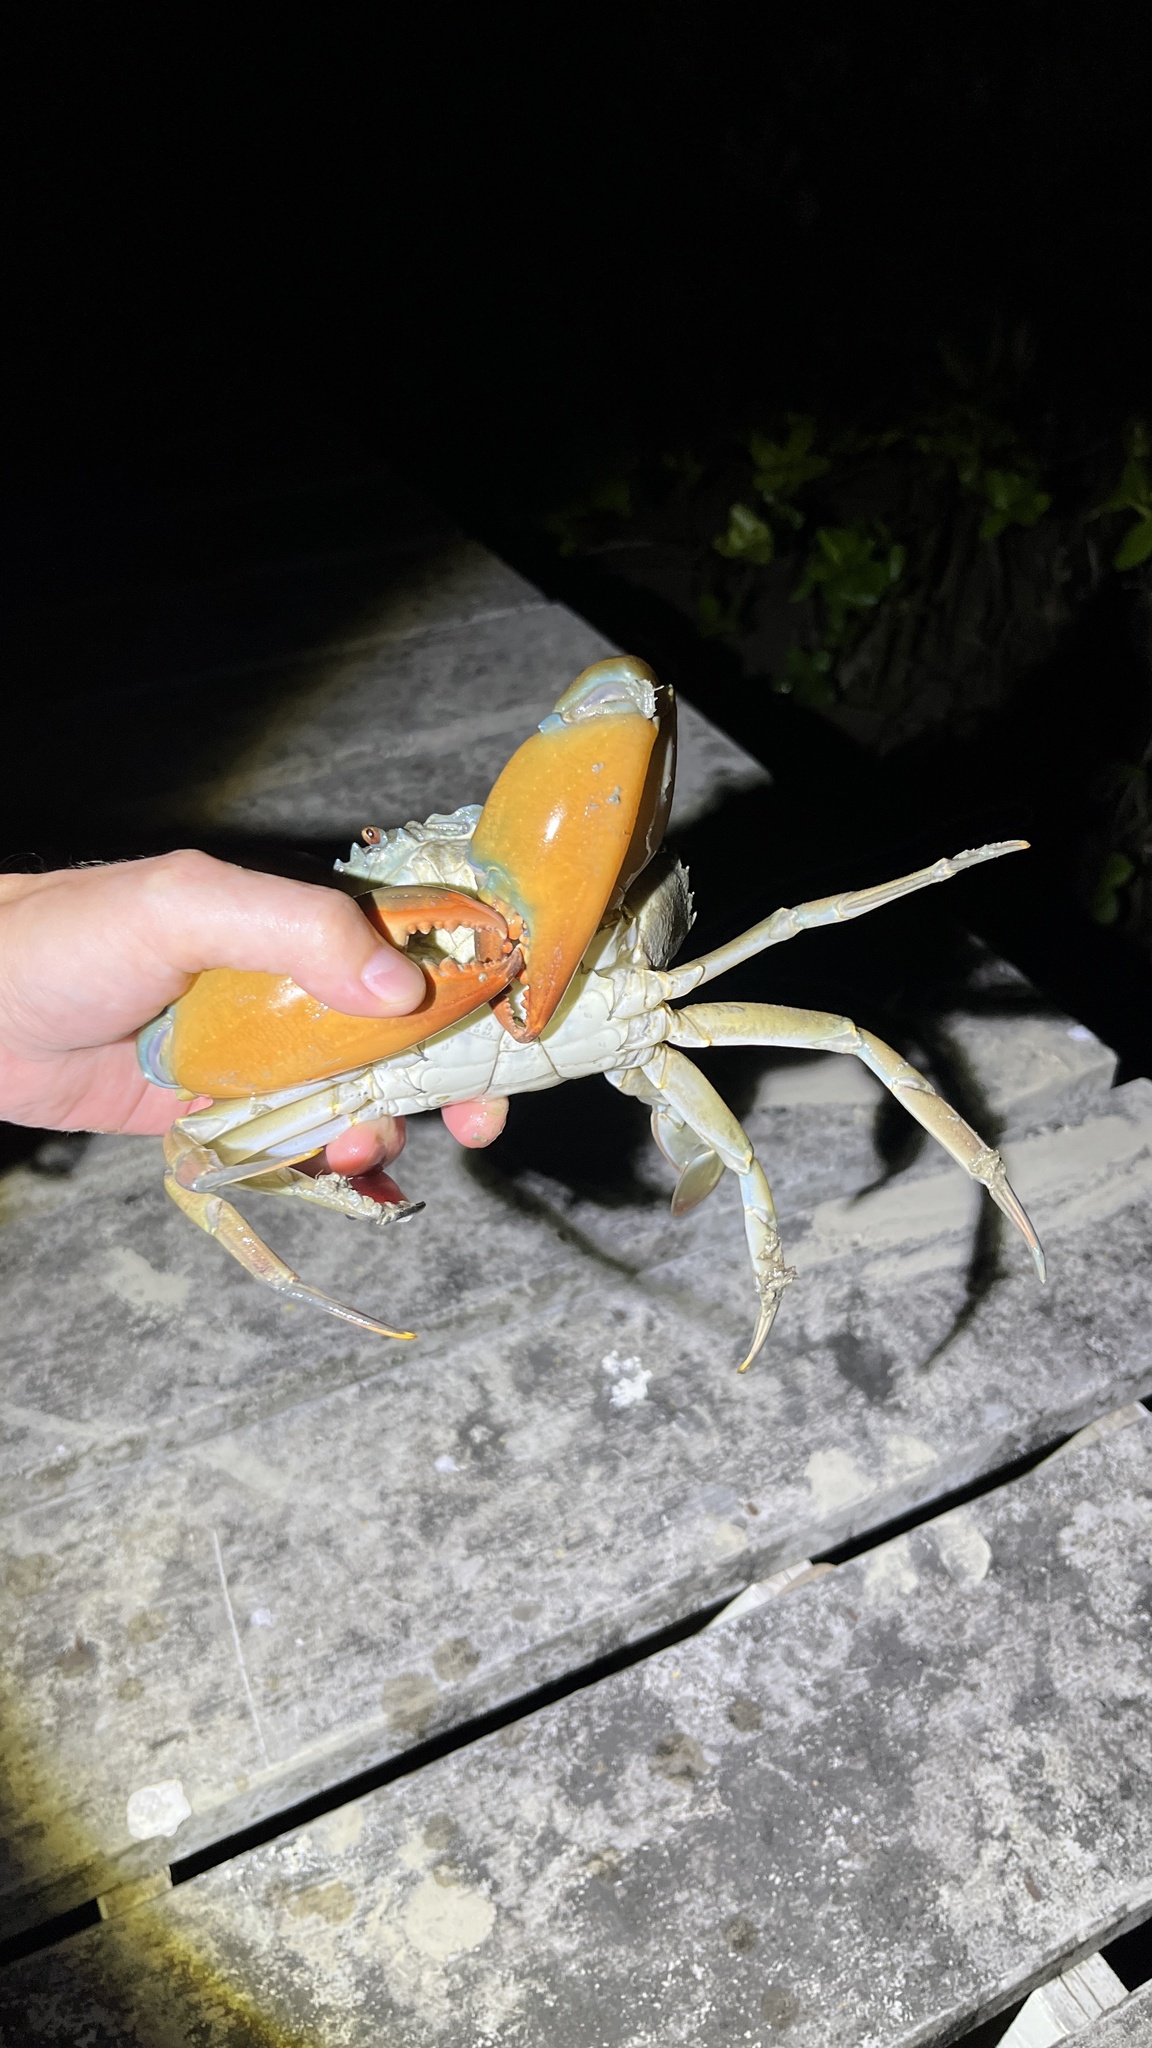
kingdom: Animalia
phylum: Arthropoda
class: Malacostraca
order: Decapoda
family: Portunidae
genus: Scylla
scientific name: Scylla olivacea
